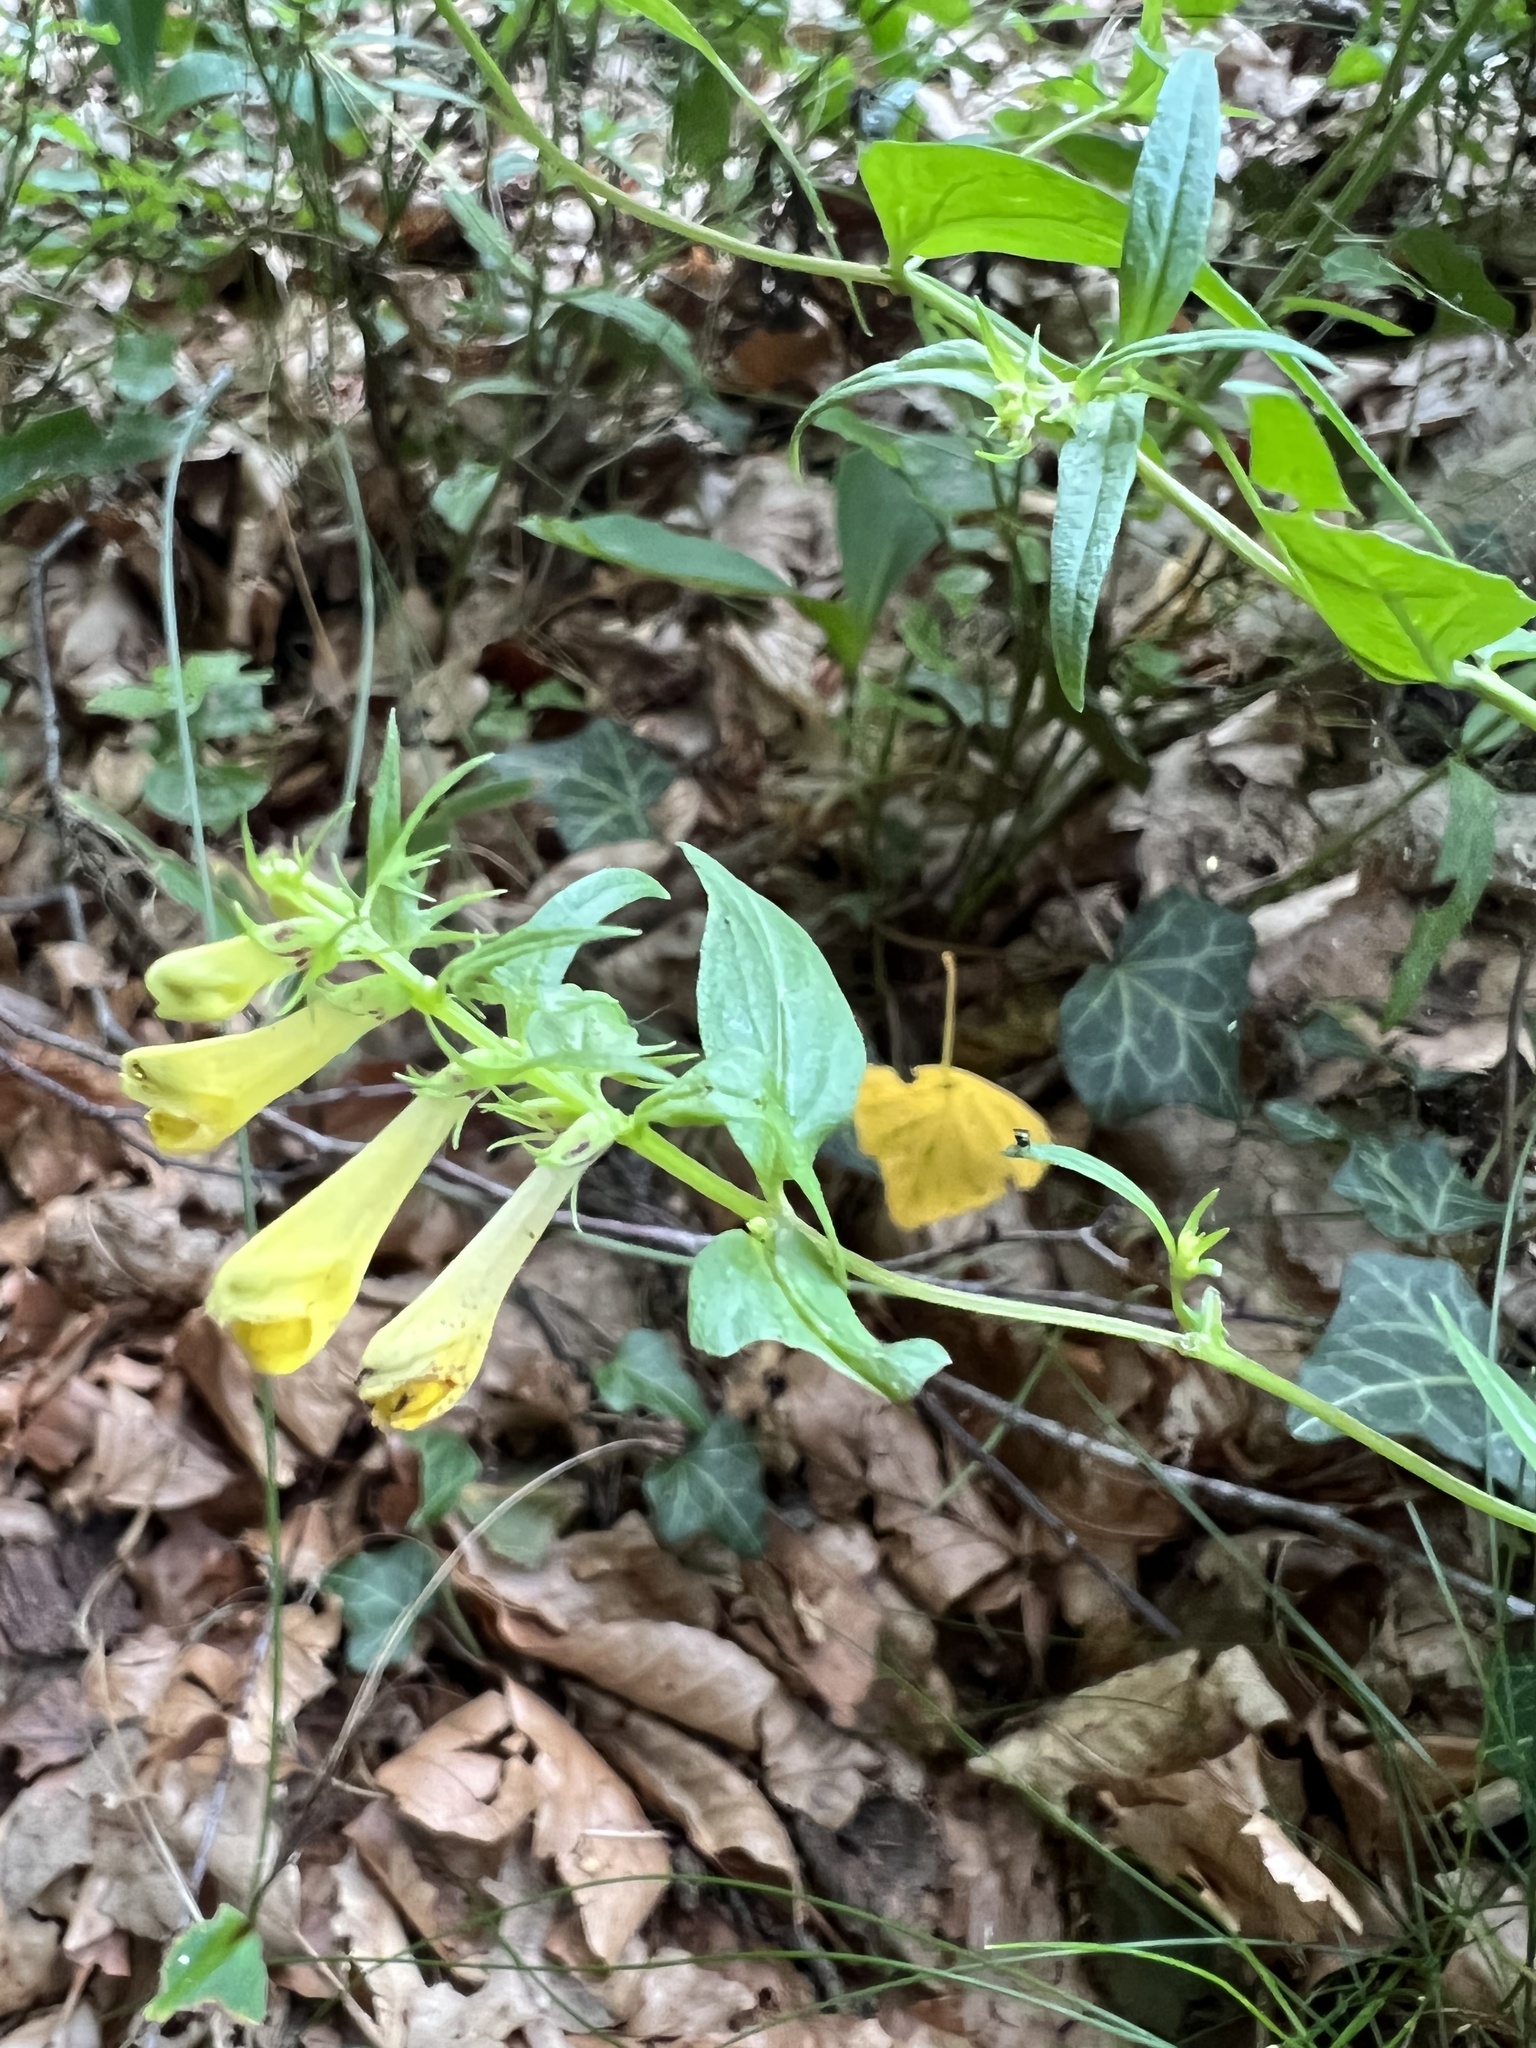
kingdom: Plantae
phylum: Tracheophyta
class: Magnoliopsida
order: Lamiales
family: Orobanchaceae
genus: Melampyrum
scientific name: Melampyrum pratense
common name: Common cow-wheat
